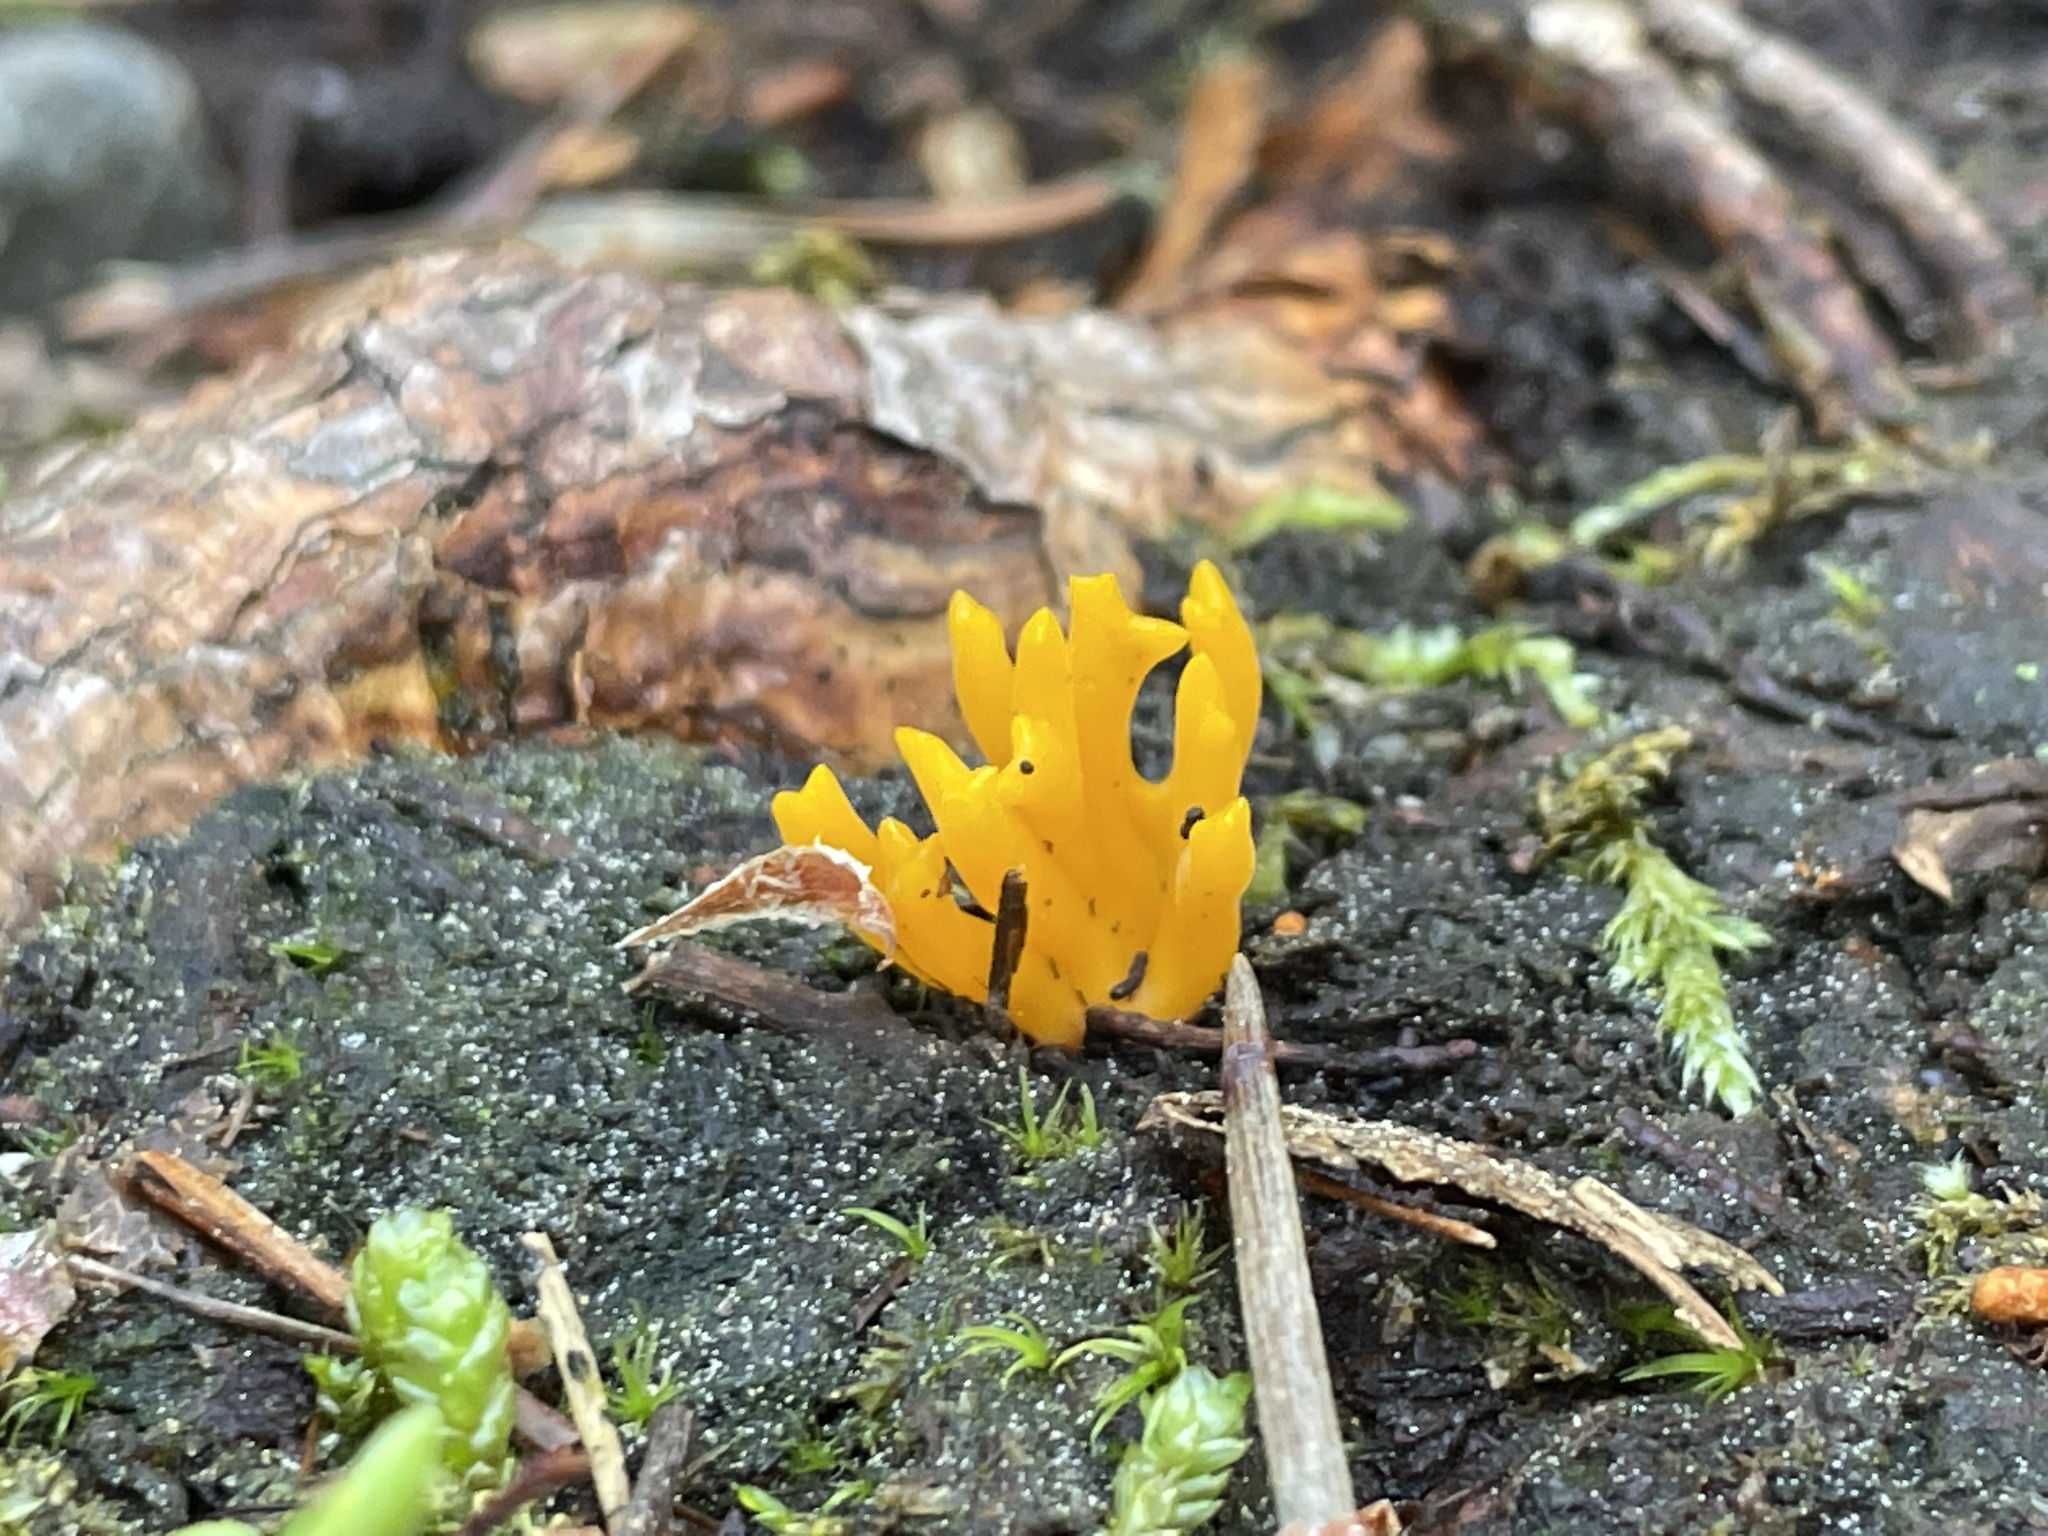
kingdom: Fungi
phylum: Basidiomycota
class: Dacrymycetes
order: Dacrymycetales
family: Dacrymycetaceae
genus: Calocera
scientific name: Calocera viscosa
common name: Yellow stagshorn
